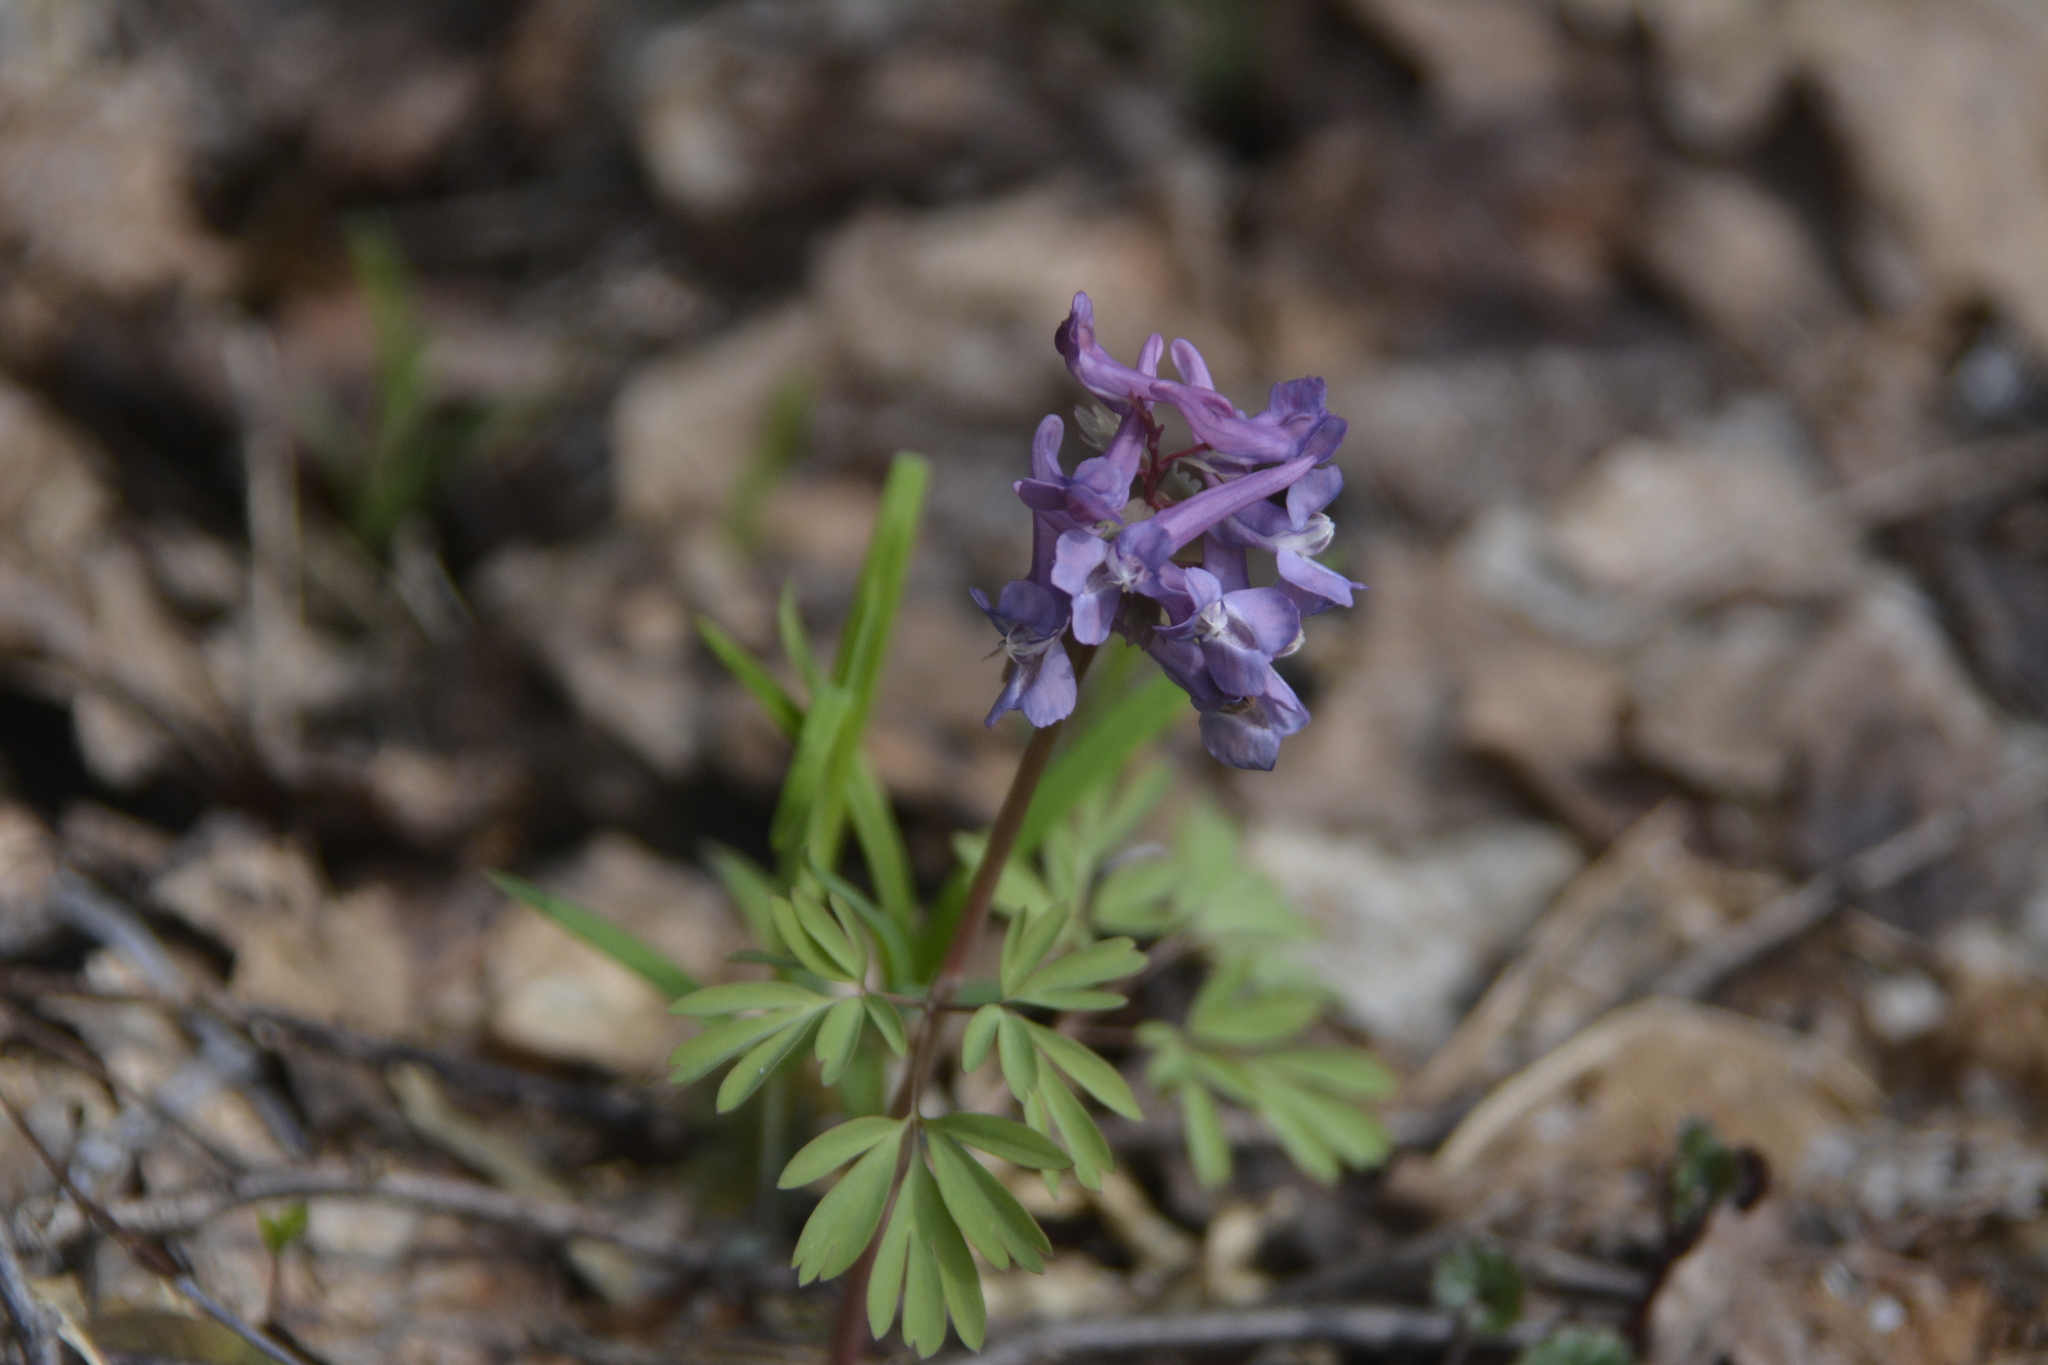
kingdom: Plantae
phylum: Tracheophyta
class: Magnoliopsida
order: Ranunculales
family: Papaveraceae
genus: Corydalis
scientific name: Corydalis solida
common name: Bird-in-a-bush
